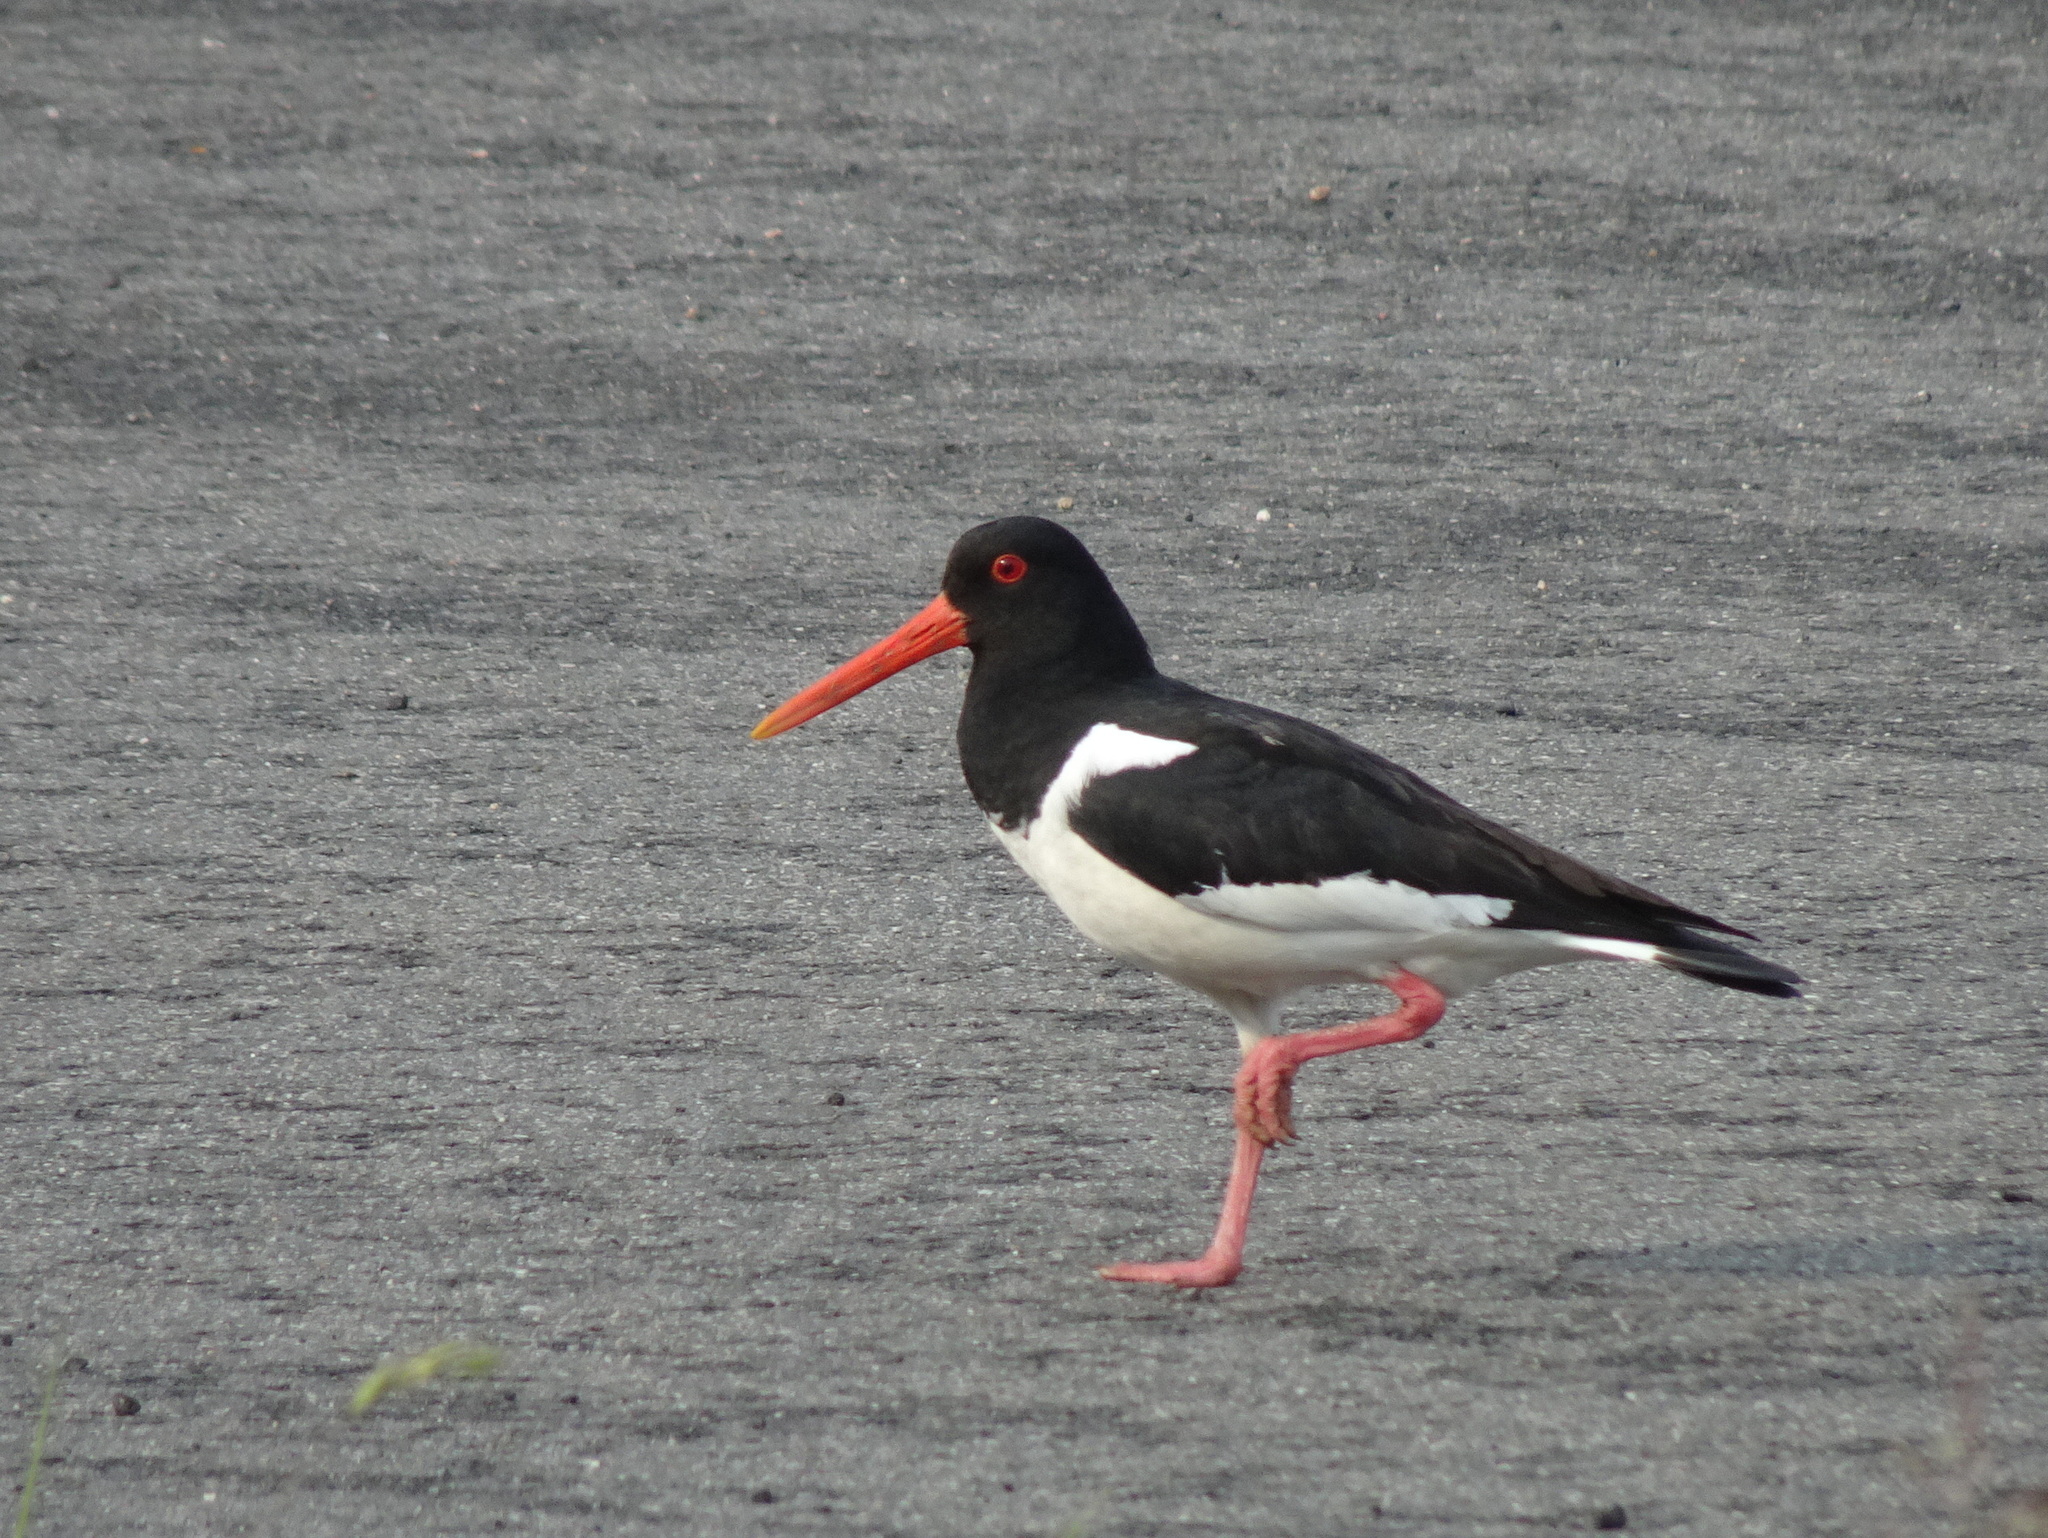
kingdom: Animalia
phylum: Chordata
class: Aves
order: Charadriiformes
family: Haematopodidae
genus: Haematopus
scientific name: Haematopus ostralegus
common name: Eurasian oystercatcher
